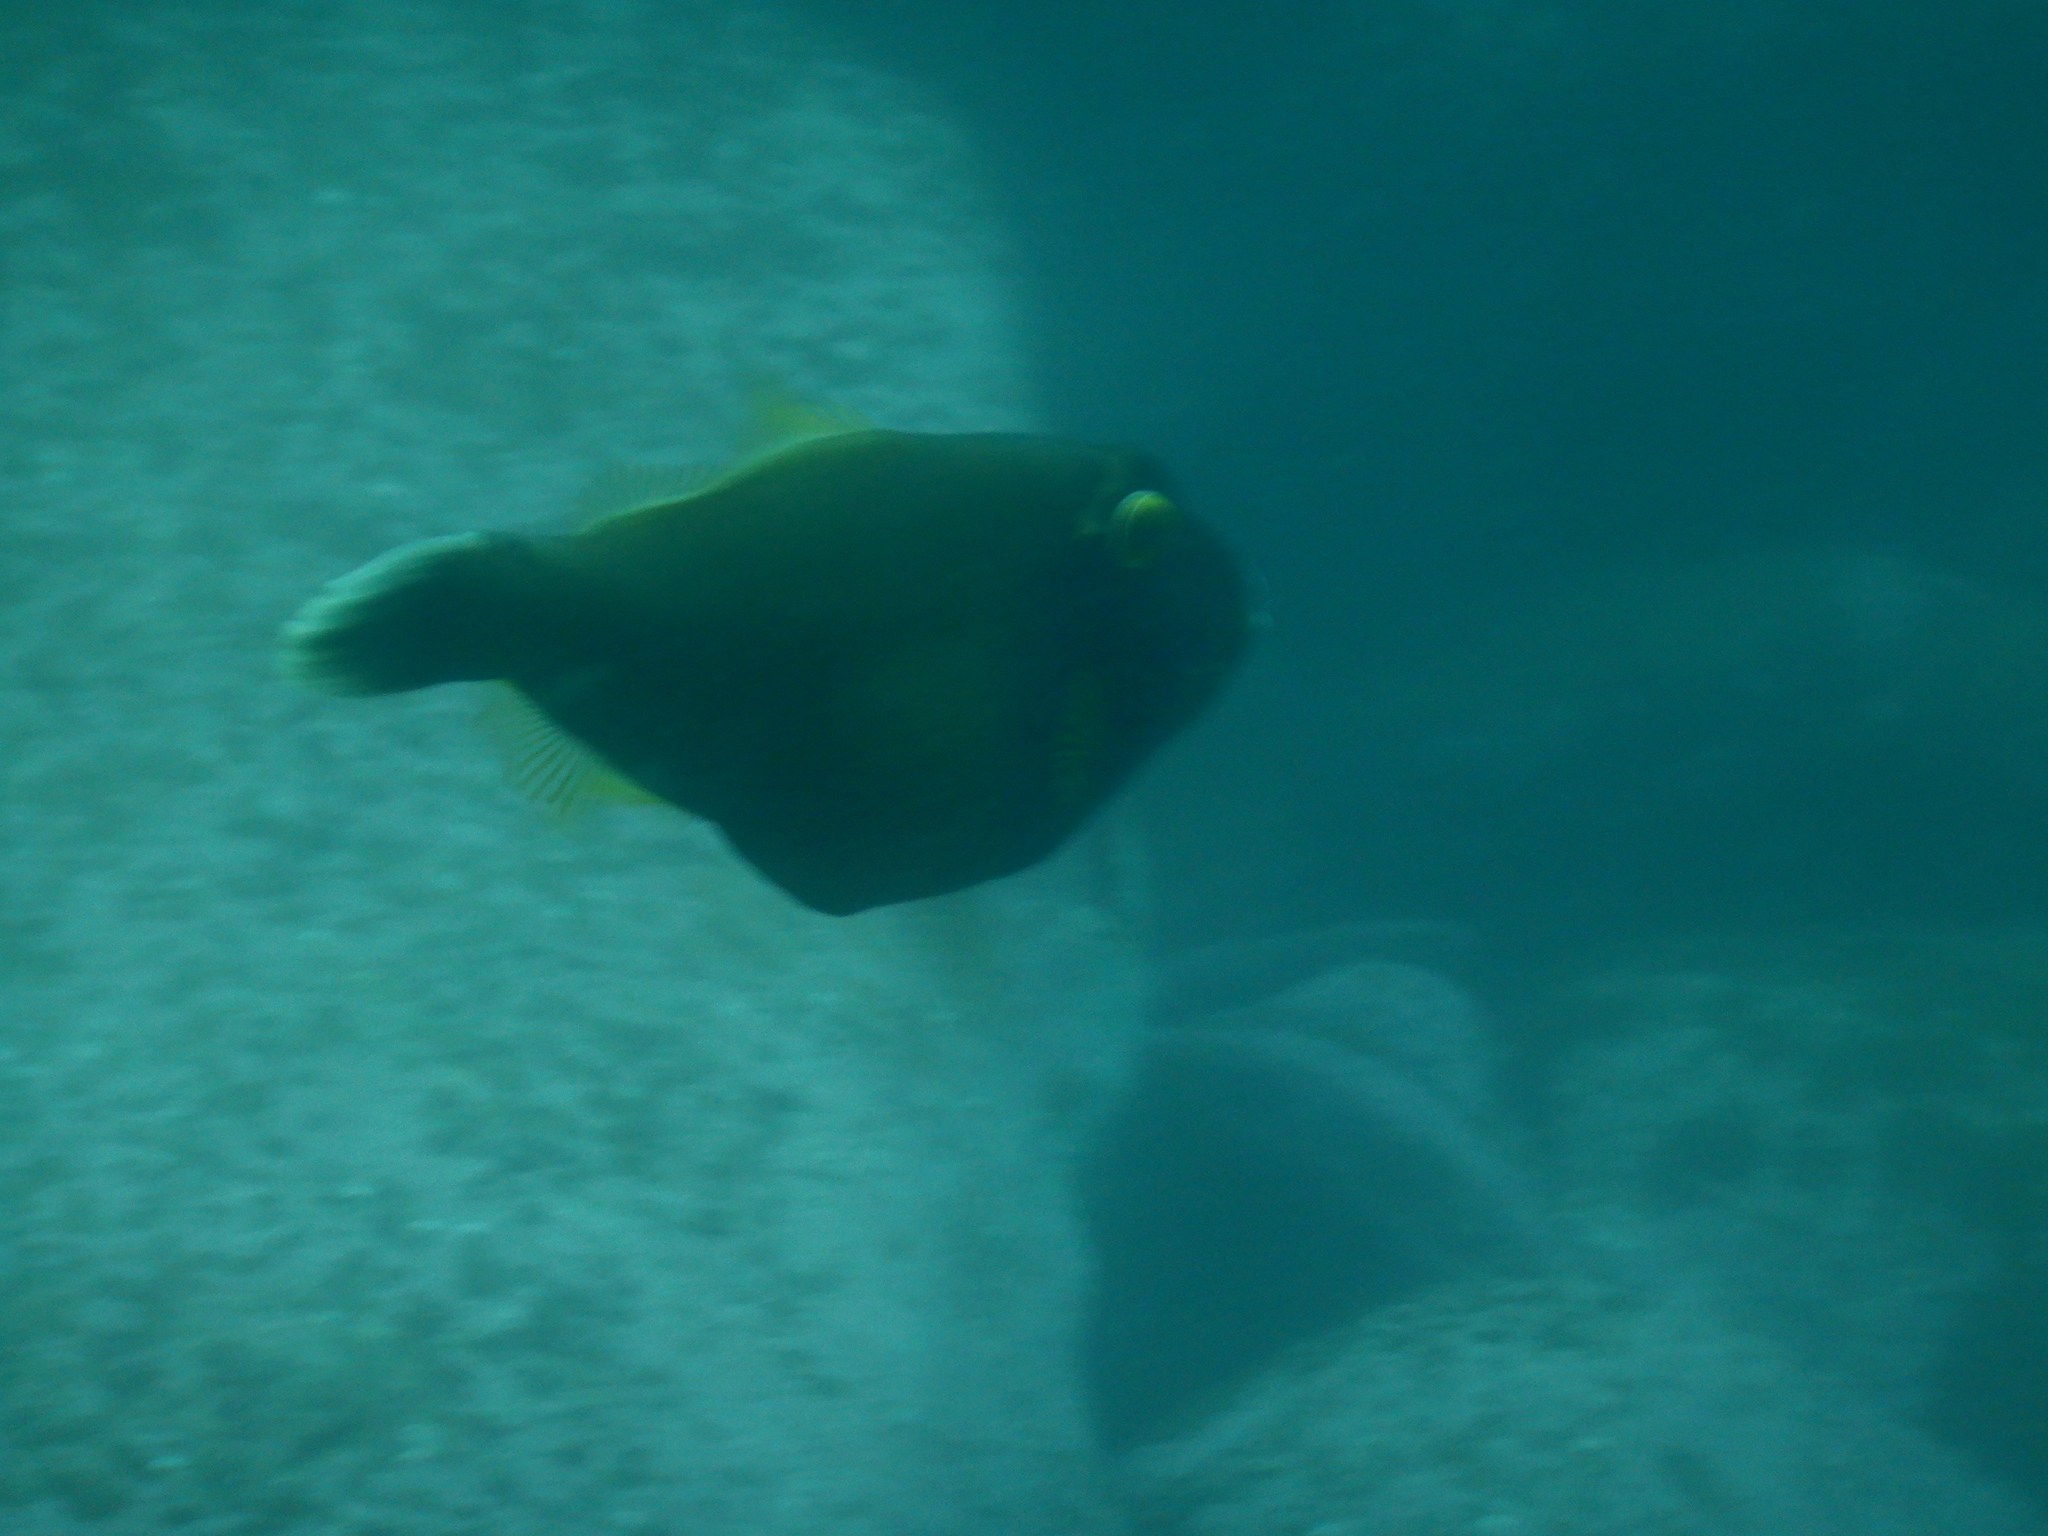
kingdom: Animalia
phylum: Chordata
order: Tetraodontiformes
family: Monacanthidae
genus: Eubalichthys
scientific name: Eubalichthys bucephalus
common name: Black reef leatherjacket
